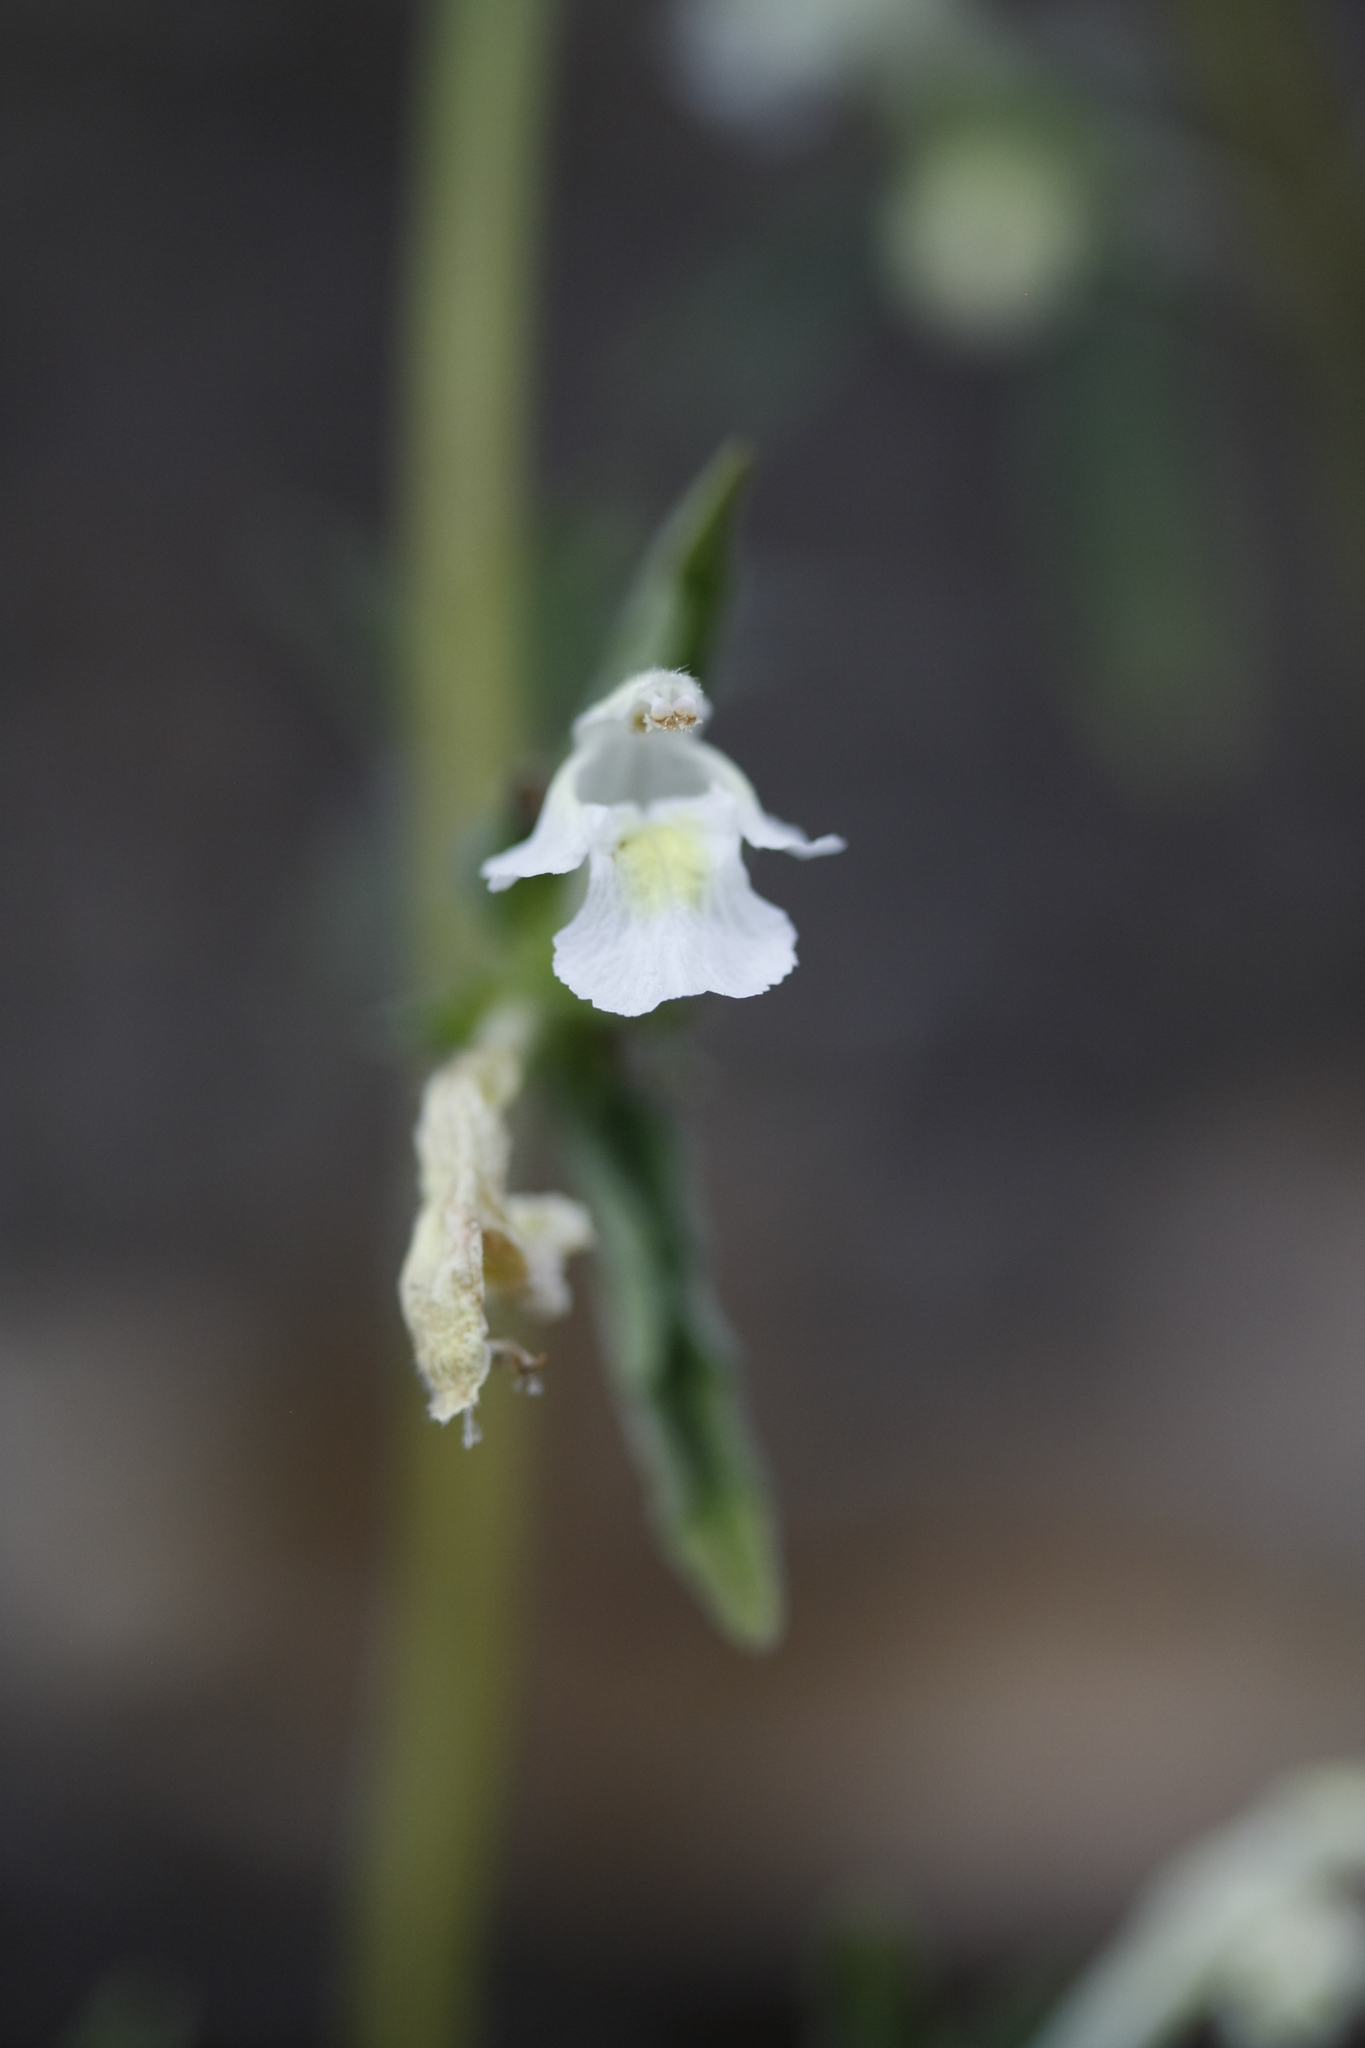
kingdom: Plantae
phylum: Tracheophyta
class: Magnoliopsida
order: Lamiales
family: Lamiaceae
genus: Galeopsis
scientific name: Galeopsis segetum
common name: Downy hemp-nettle
